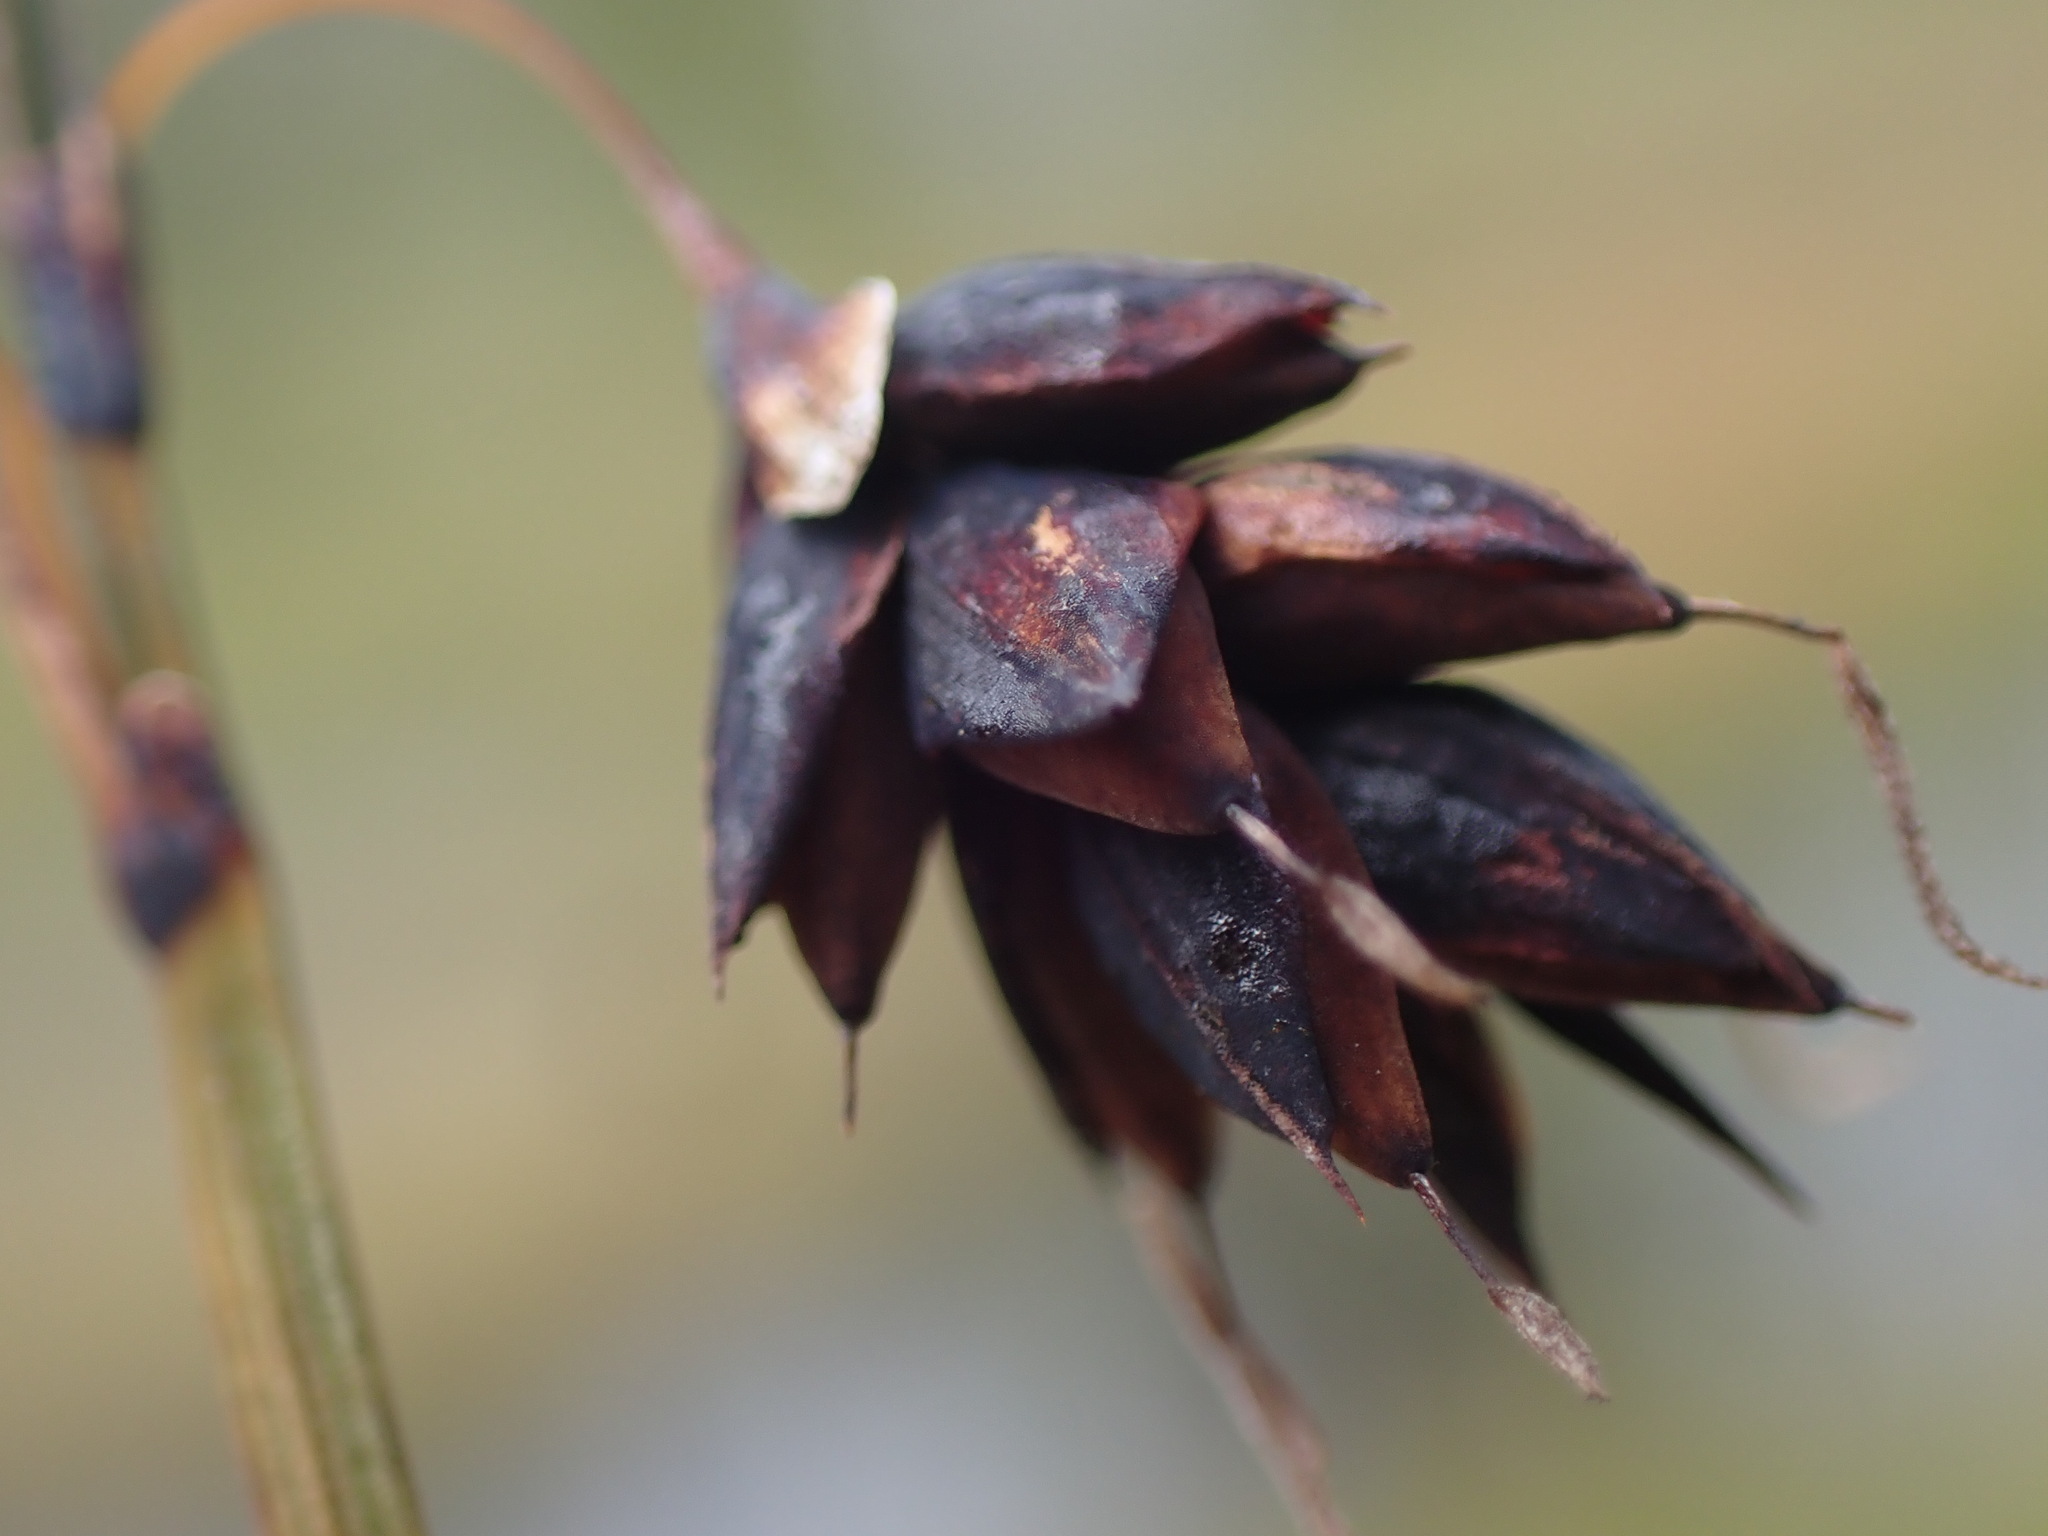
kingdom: Plantae
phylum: Tracheophyta
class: Liliopsida
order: Poales
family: Cyperaceae
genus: Carex
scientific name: Carex pluriflora
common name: Manyflower sedge
